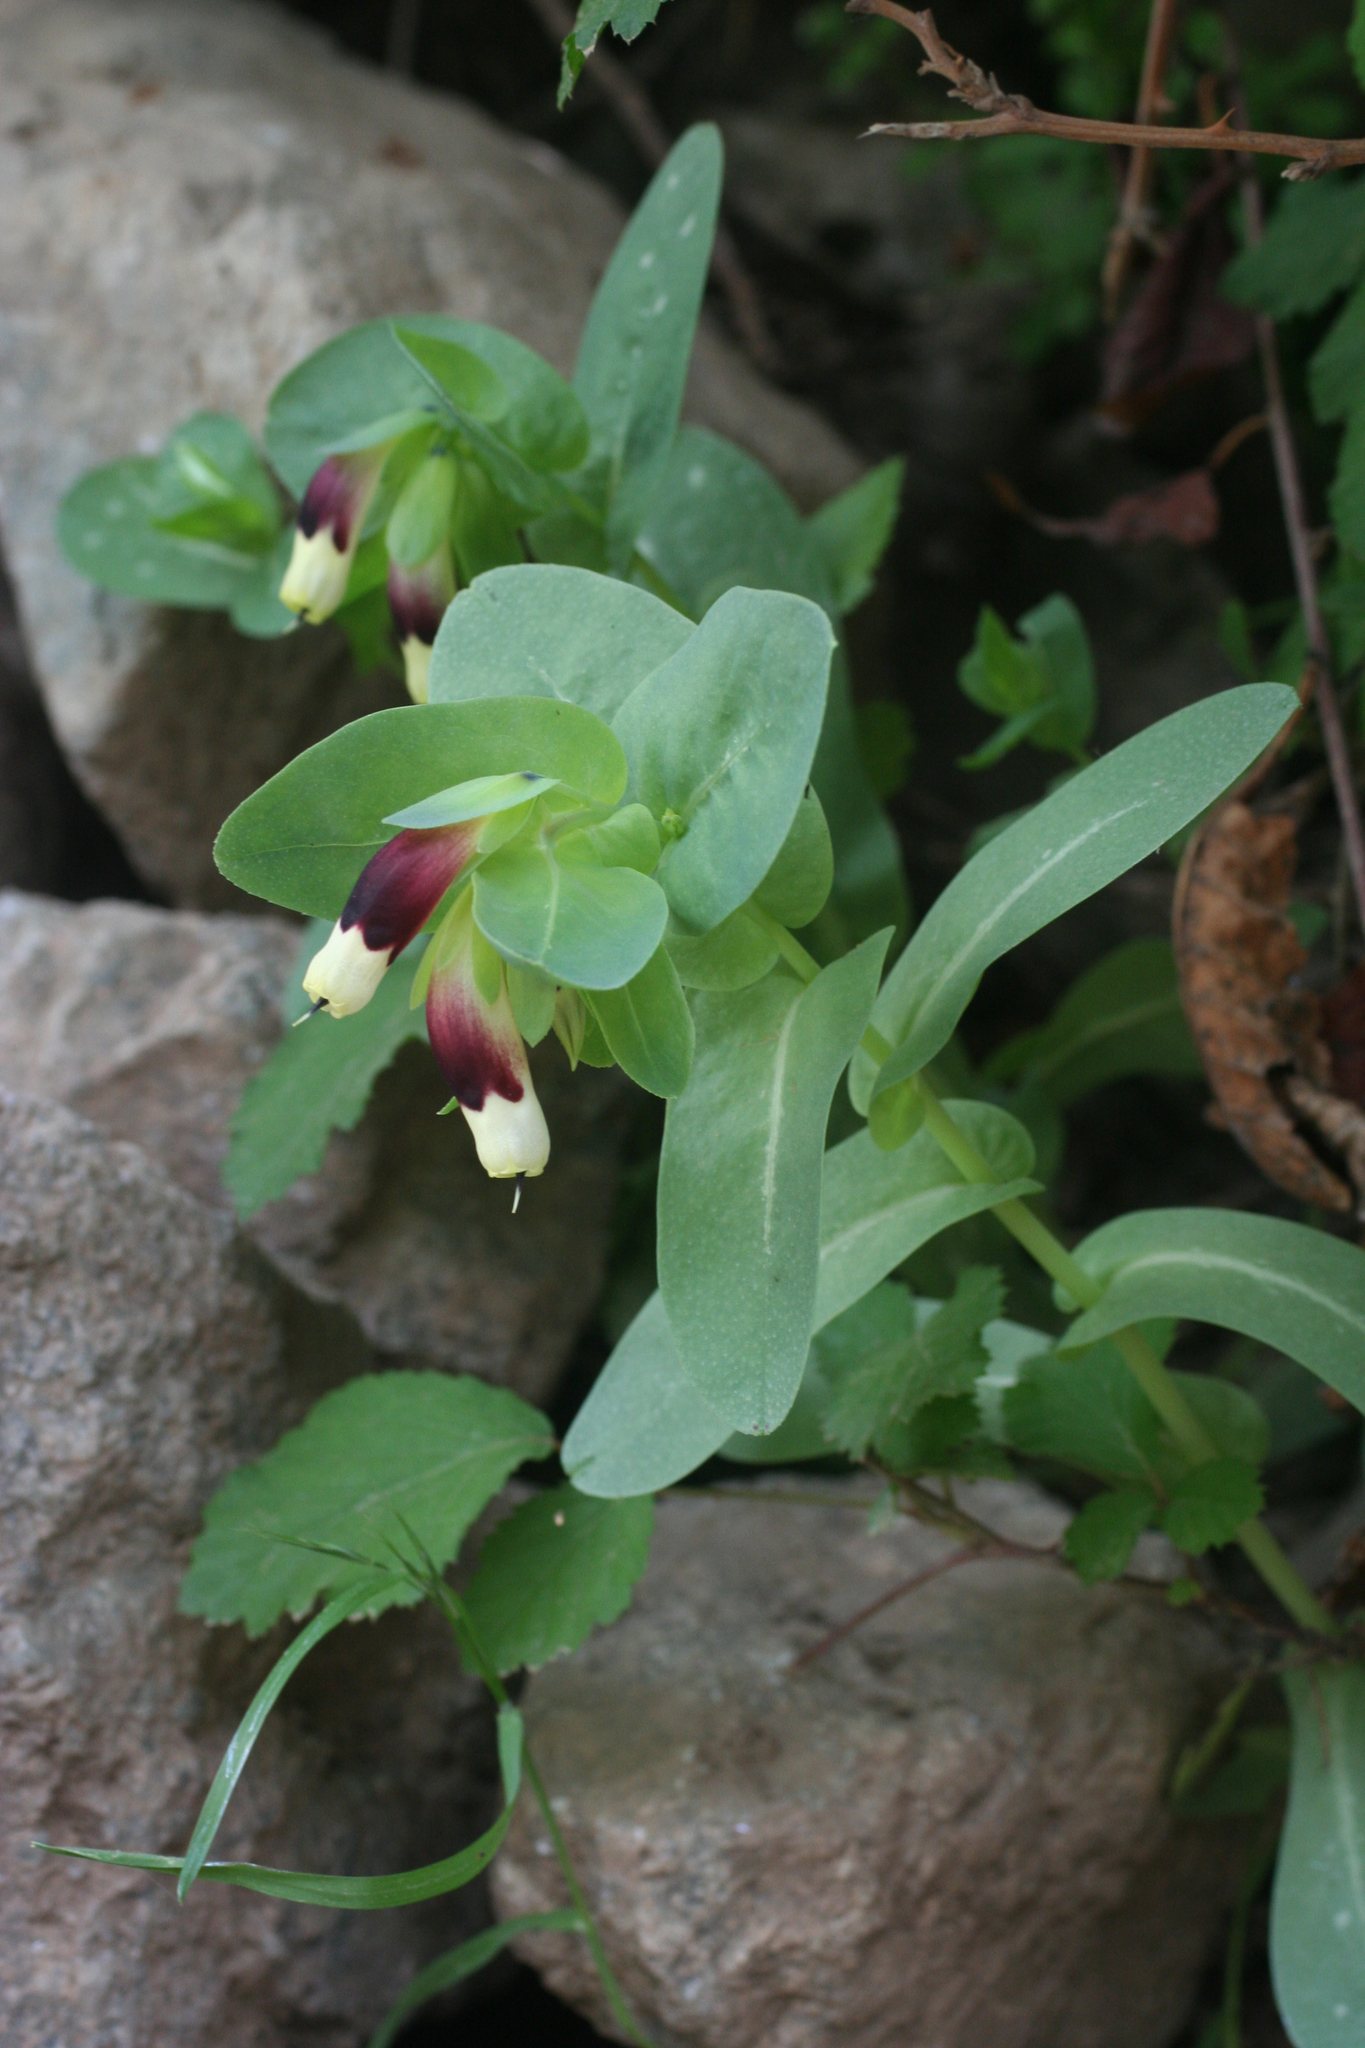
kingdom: Plantae
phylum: Tracheophyta
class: Magnoliopsida
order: Boraginales
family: Boraginaceae
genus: Cerinthe
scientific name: Cerinthe major
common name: Greater honeywort
